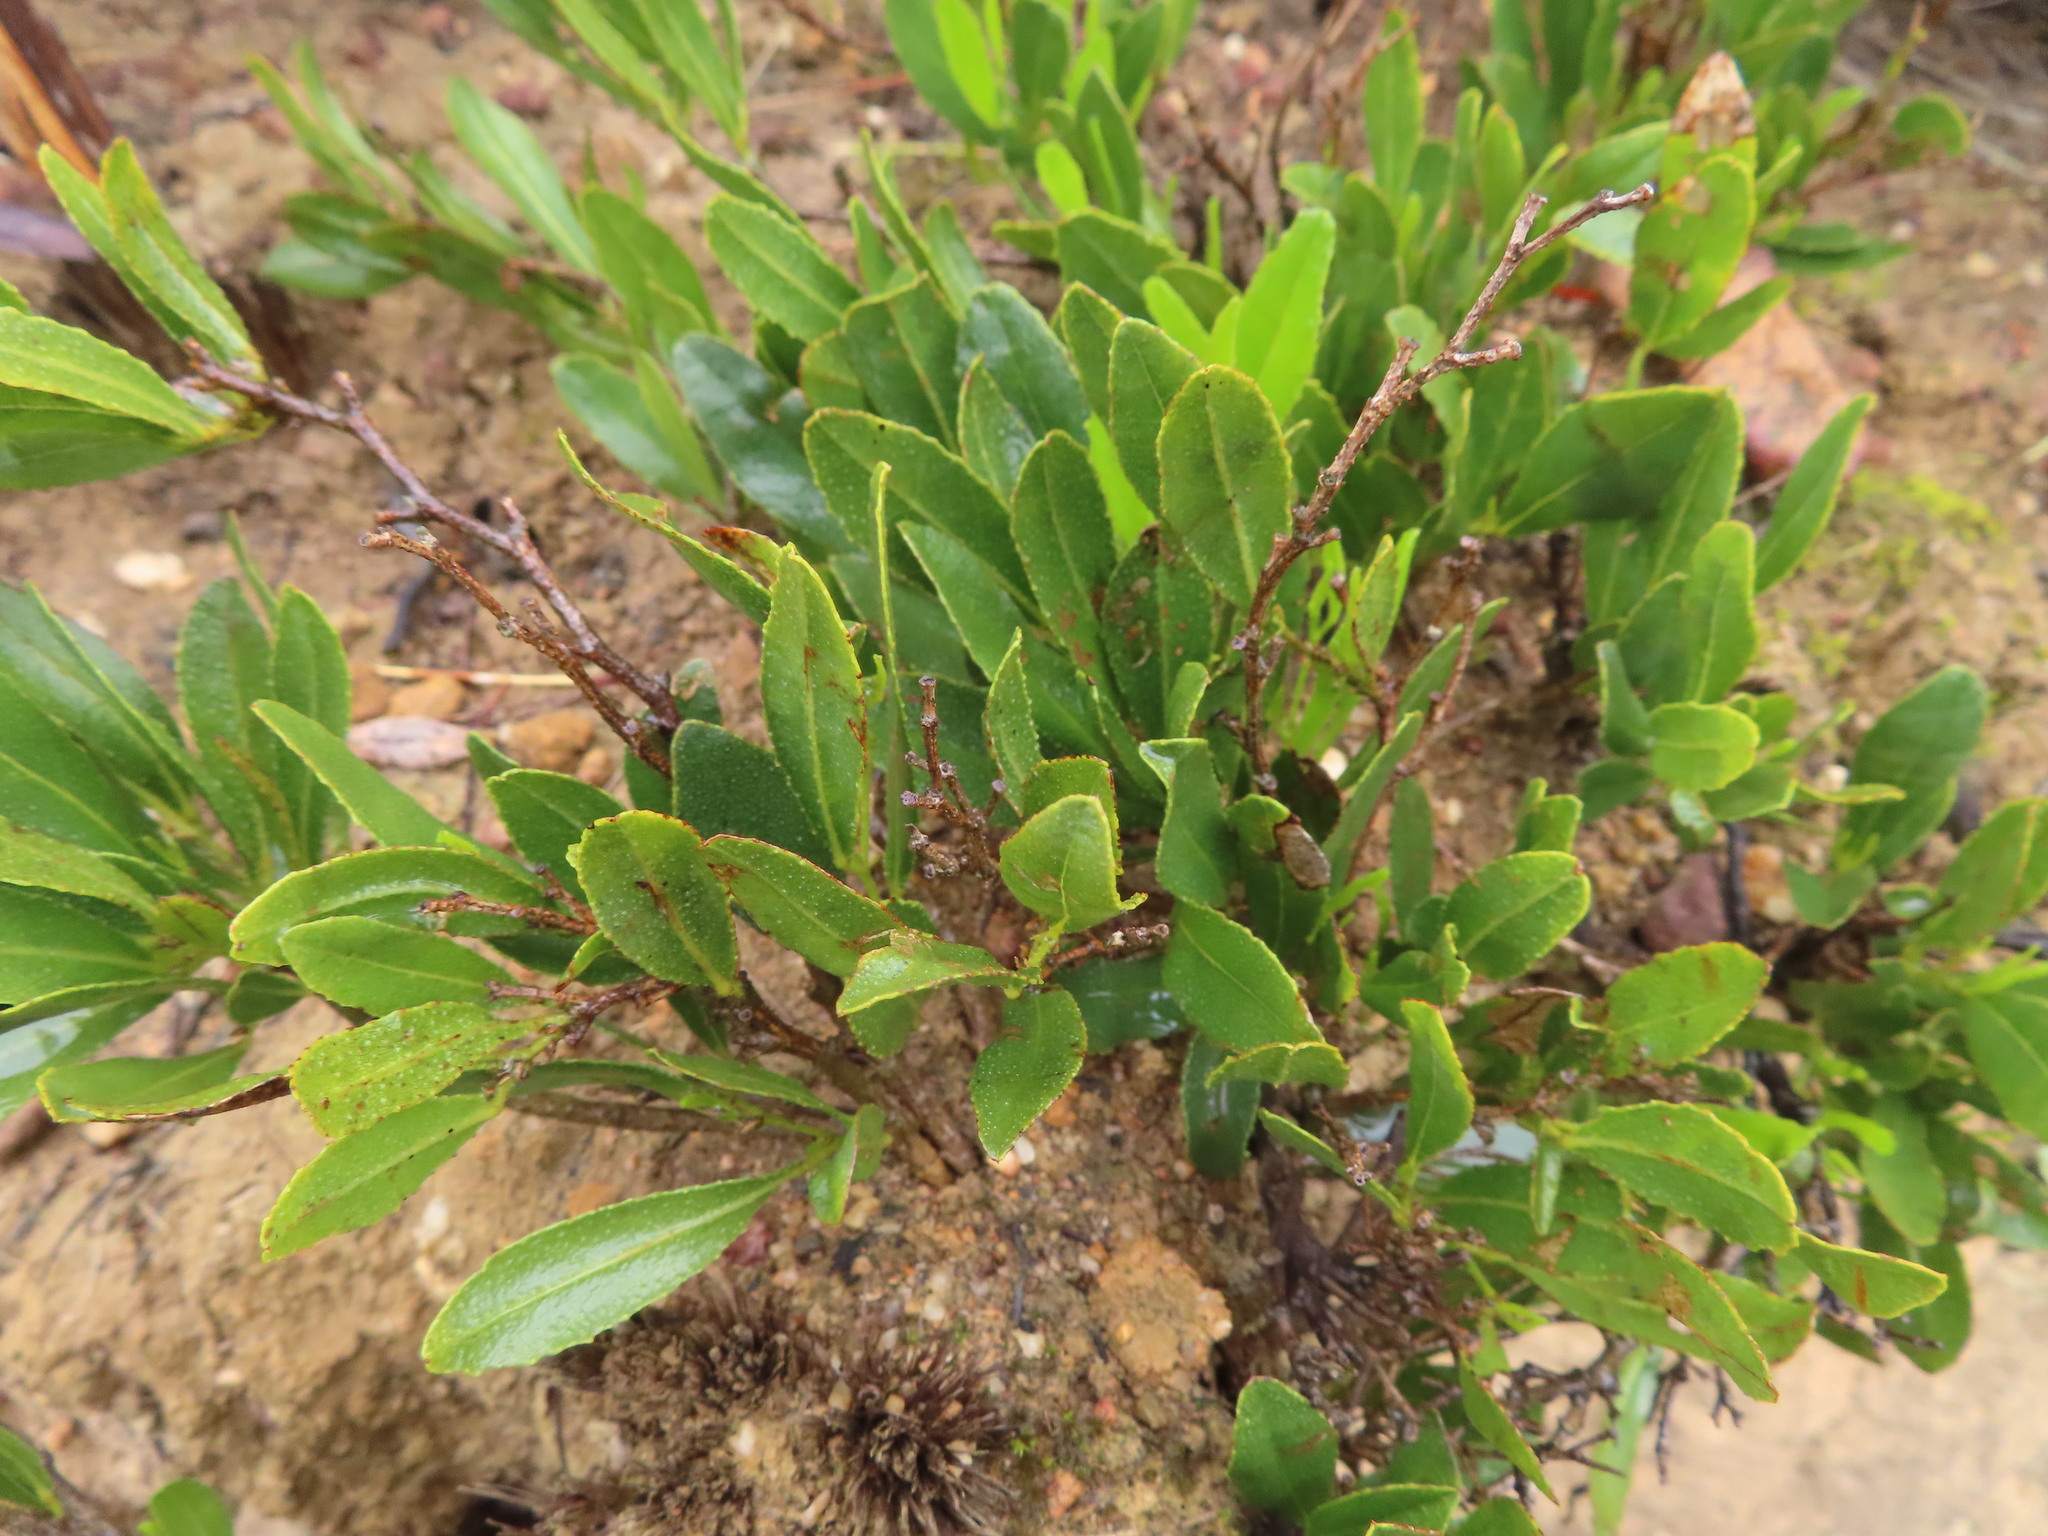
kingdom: Plantae
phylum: Tracheophyta
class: Magnoliopsida
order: Fabales
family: Fabaceae
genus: Psoralea
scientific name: Psoralea rotundifolia
